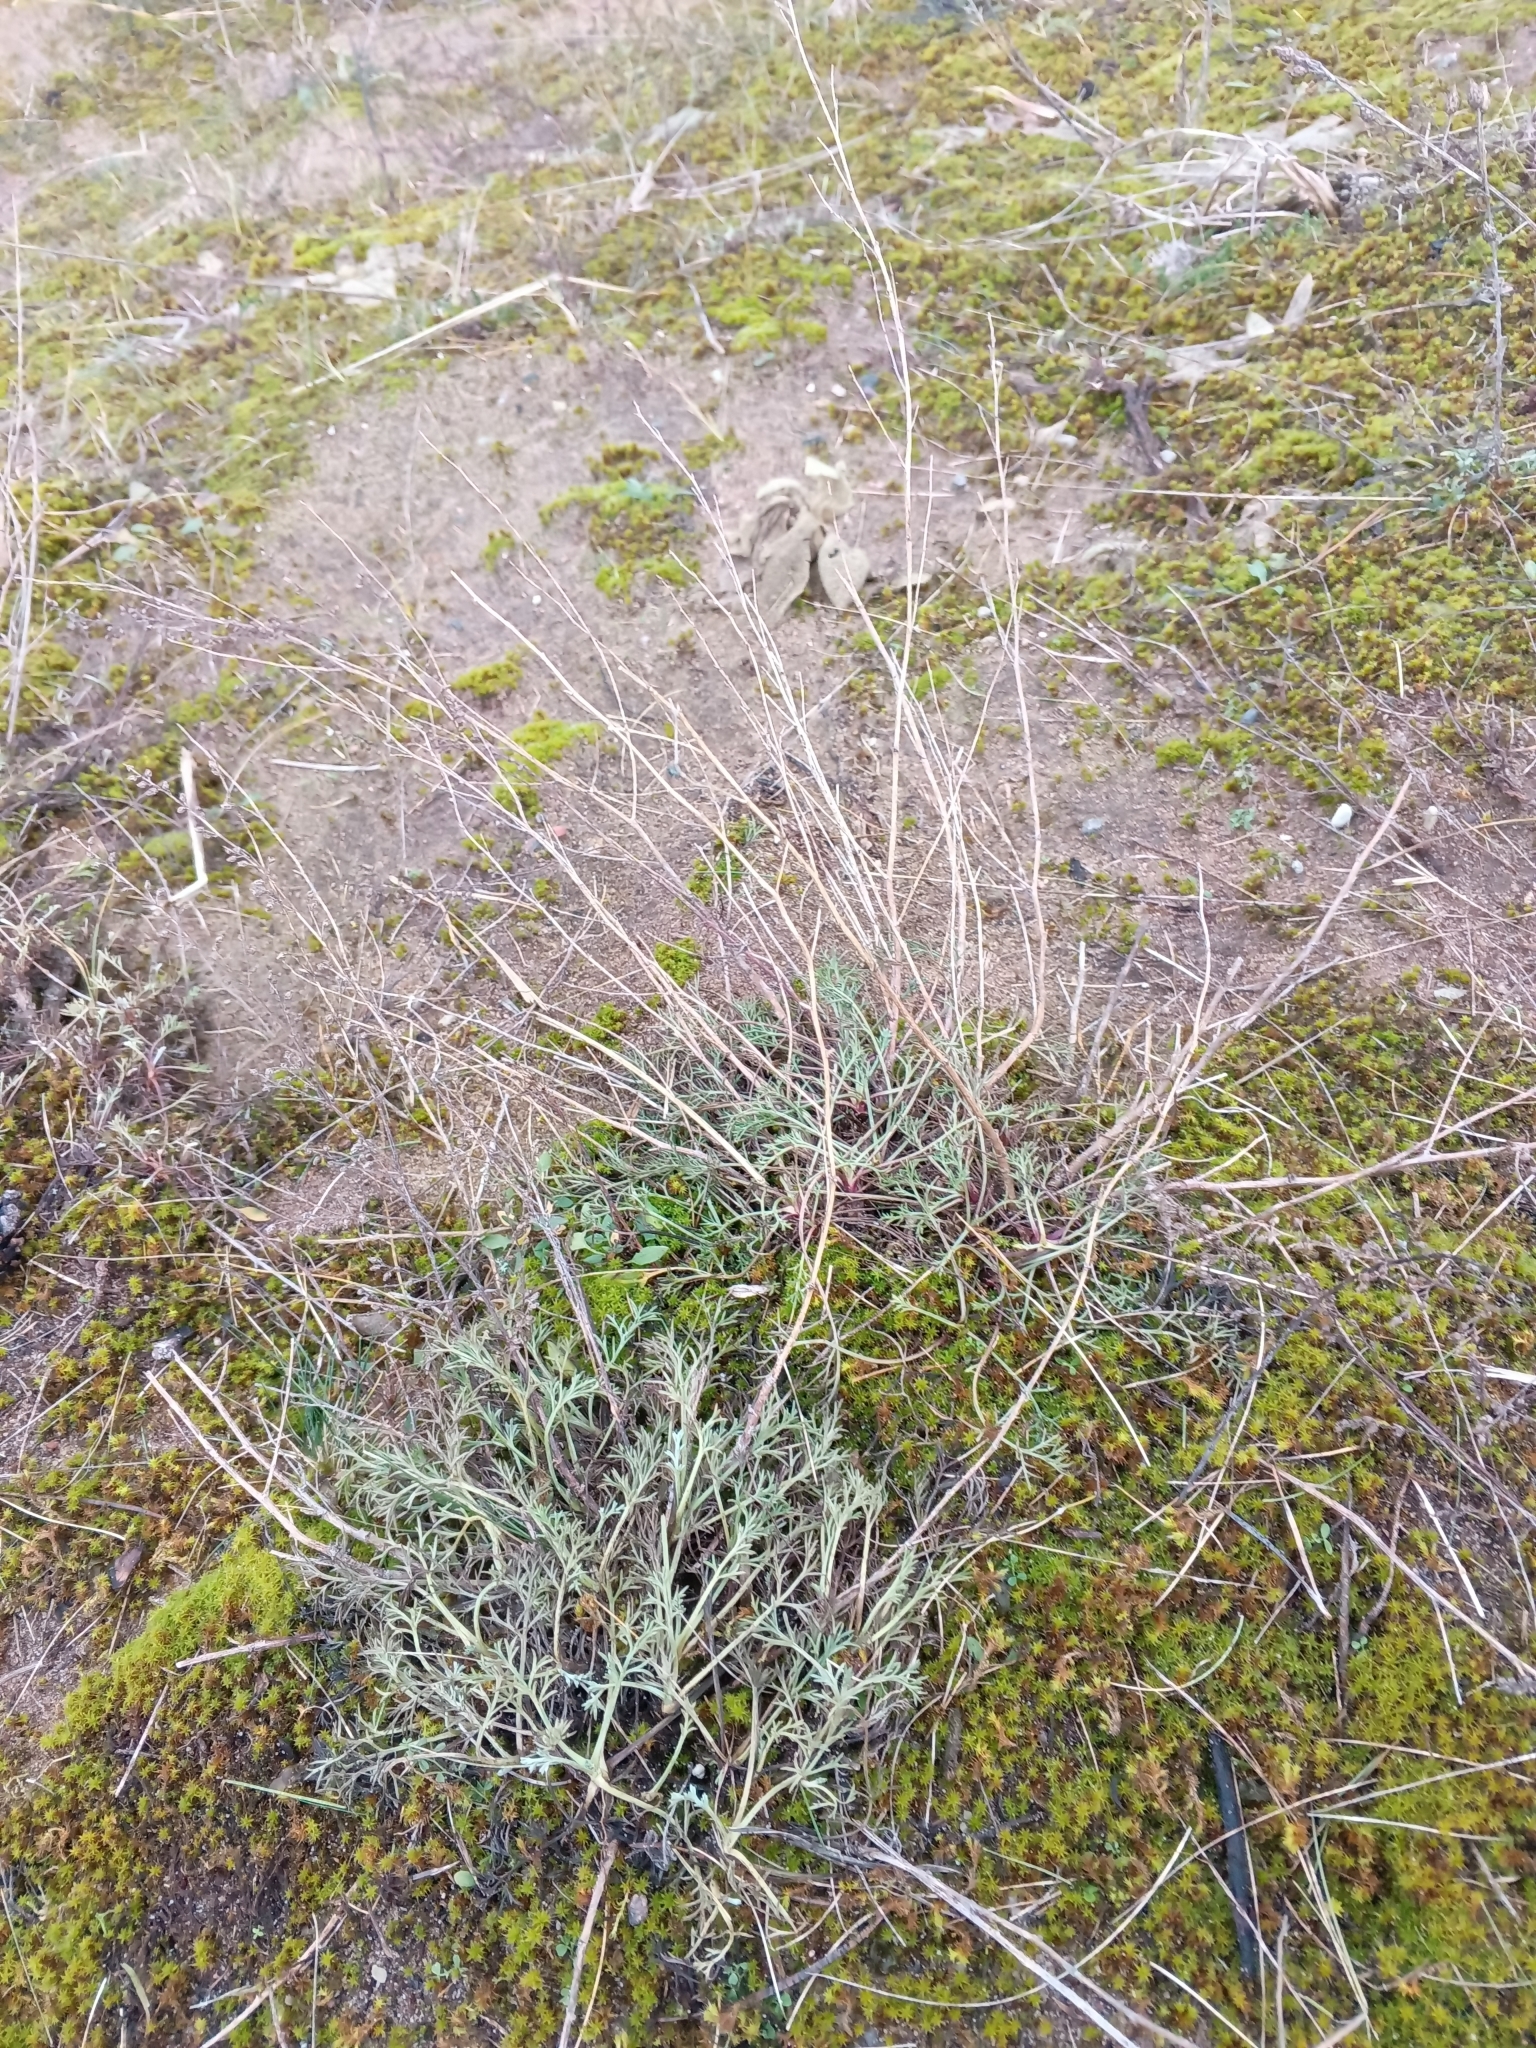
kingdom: Plantae
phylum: Tracheophyta
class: Magnoliopsida
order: Asterales
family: Asteraceae
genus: Artemisia
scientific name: Artemisia campestris
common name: Field wormwood
